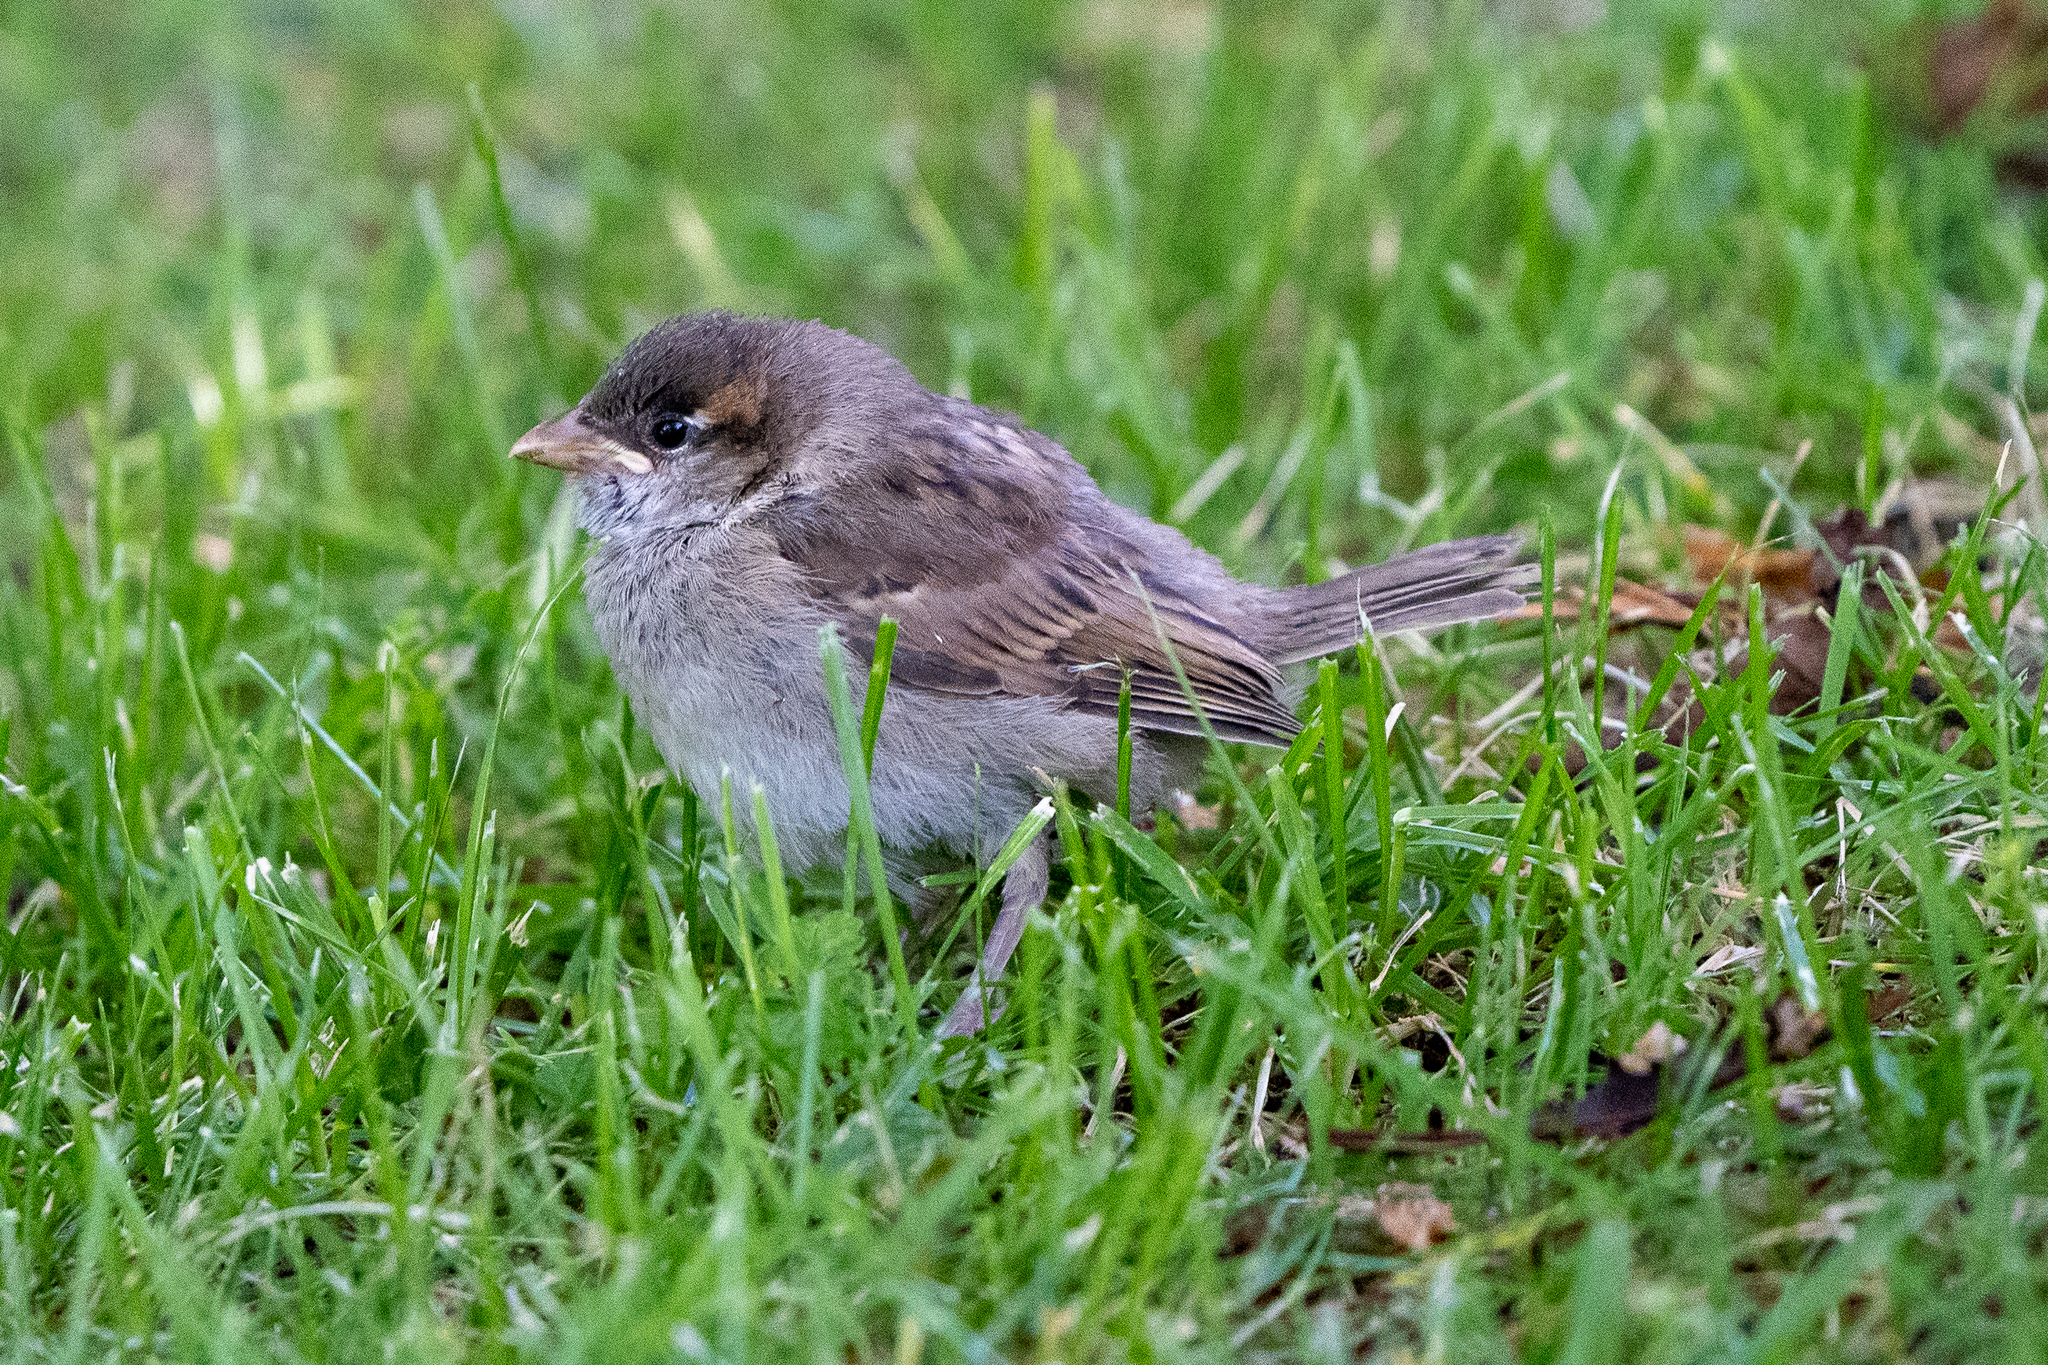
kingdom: Animalia
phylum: Chordata
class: Aves
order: Passeriformes
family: Passeridae
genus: Passer
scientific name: Passer domesticus
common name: House sparrow
